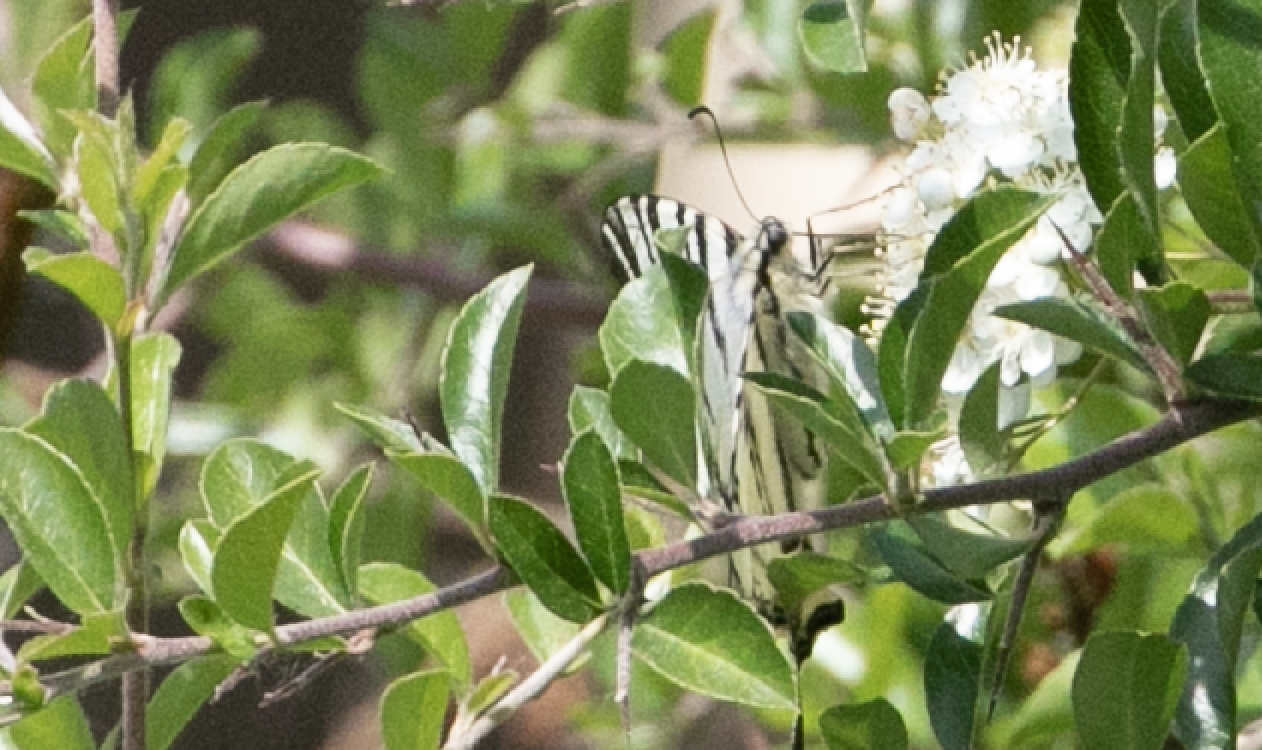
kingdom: Animalia
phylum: Arthropoda
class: Insecta
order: Lepidoptera
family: Papilionidae
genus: Iphiclides
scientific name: Iphiclides podalirius
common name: Scarce swallowtail
